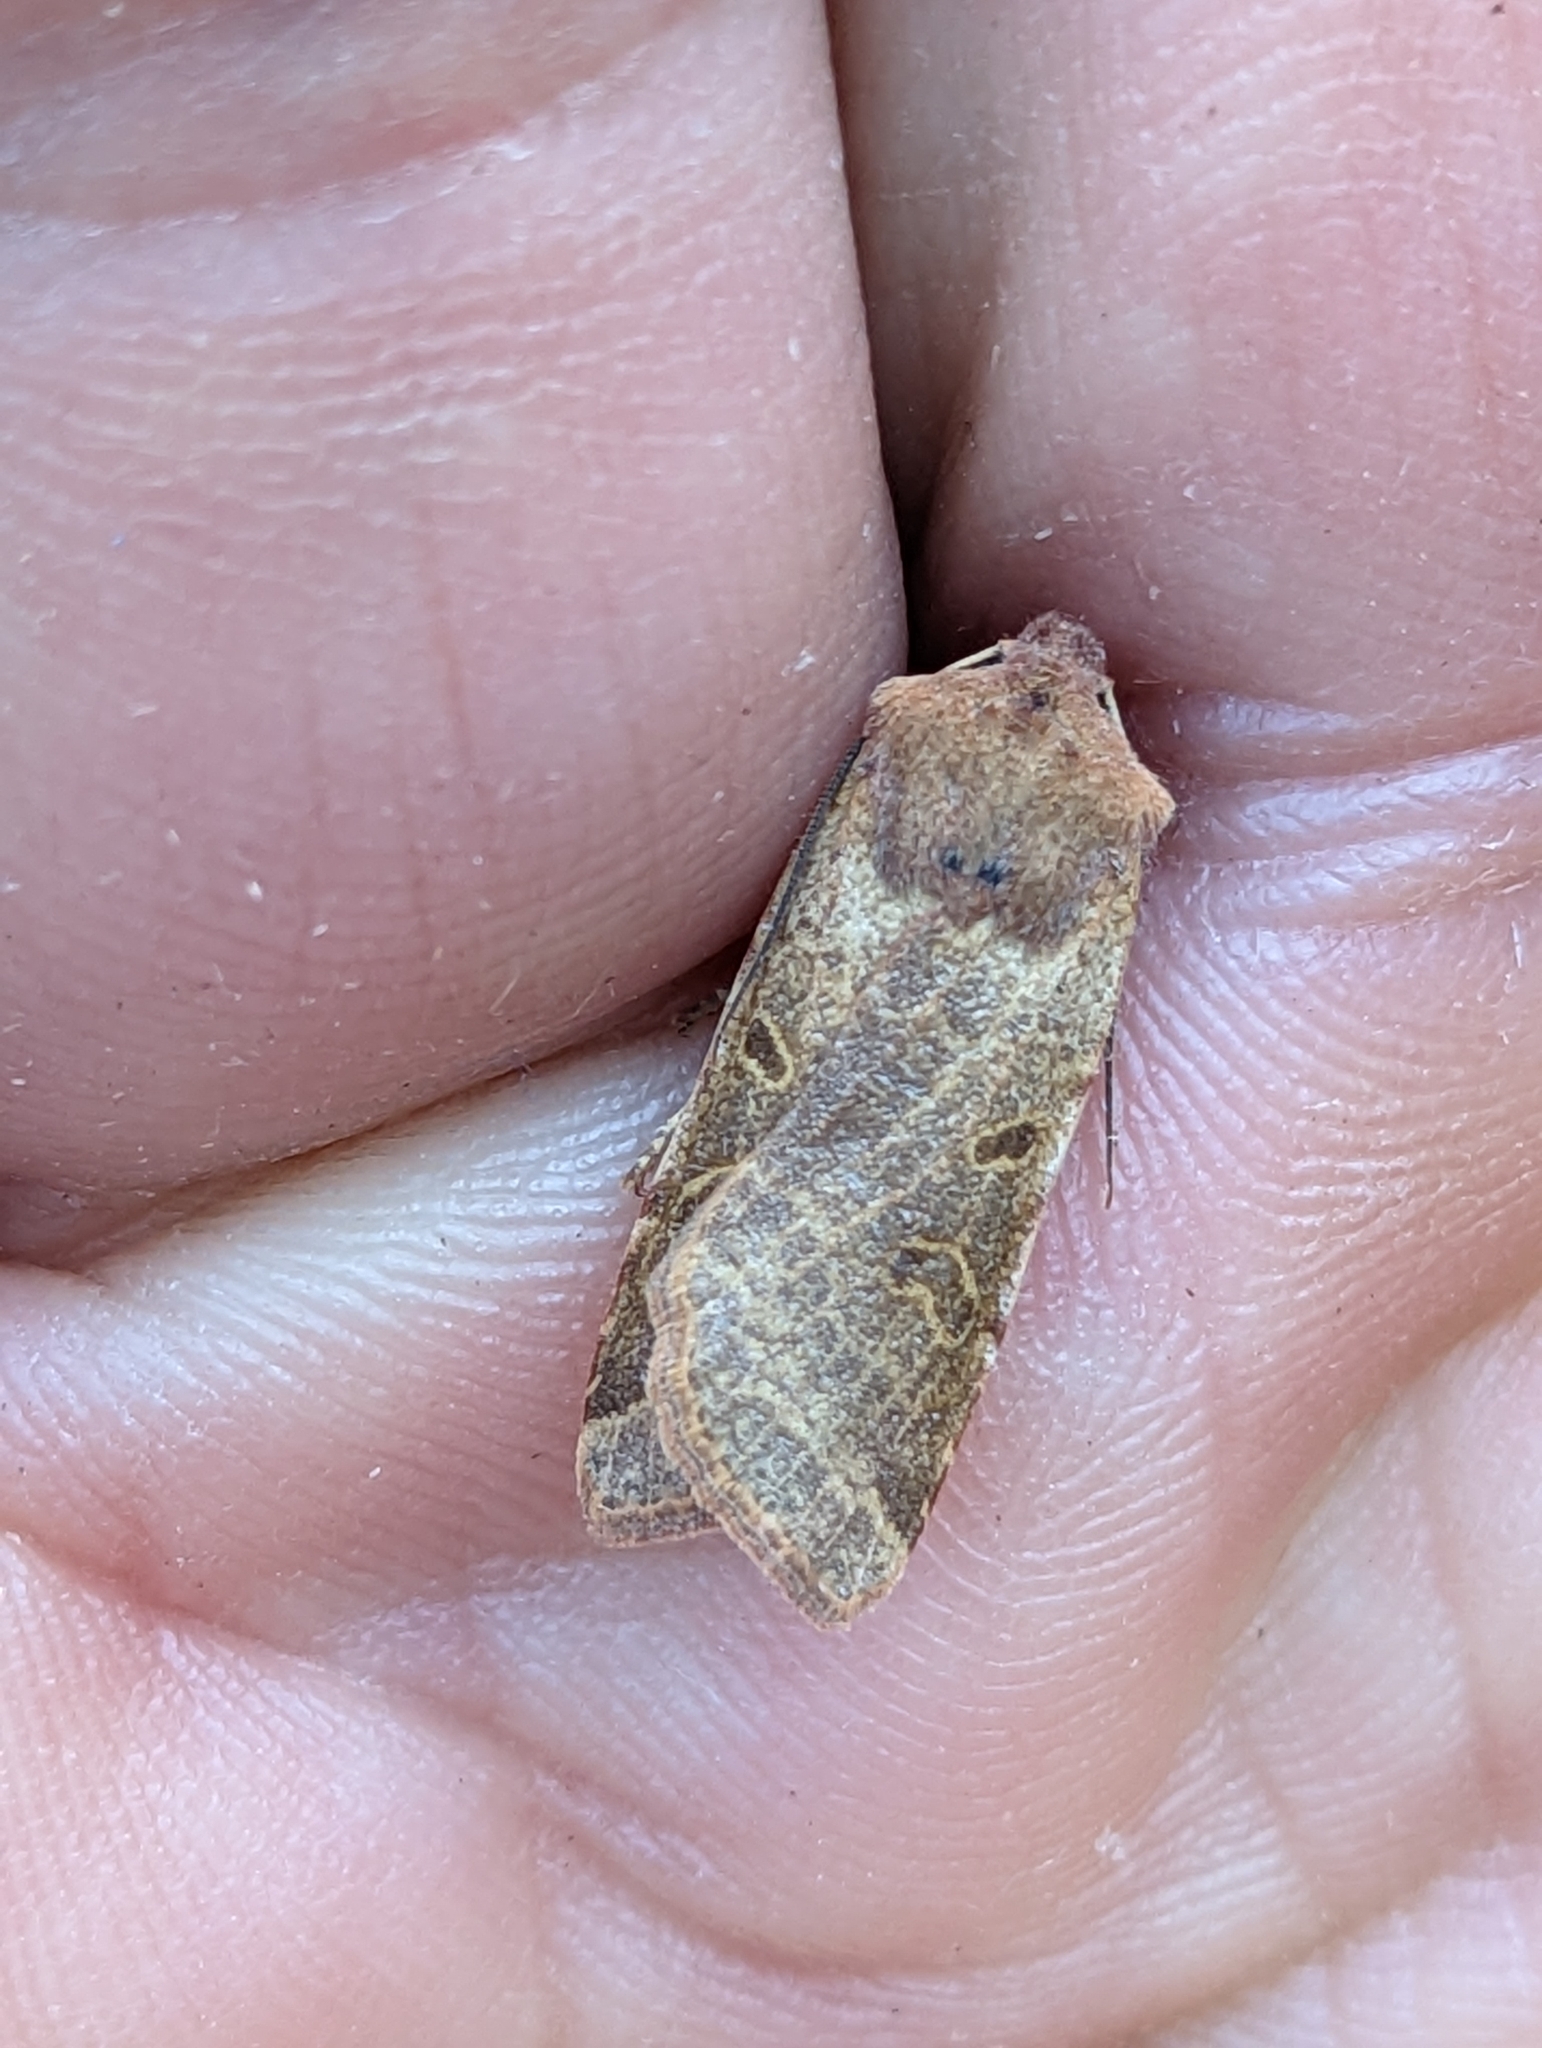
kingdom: Animalia
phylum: Arthropoda
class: Insecta
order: Lepidoptera
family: Noctuidae
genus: Agrochola
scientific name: Agrochola lychnidis
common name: Beaded chestnut
